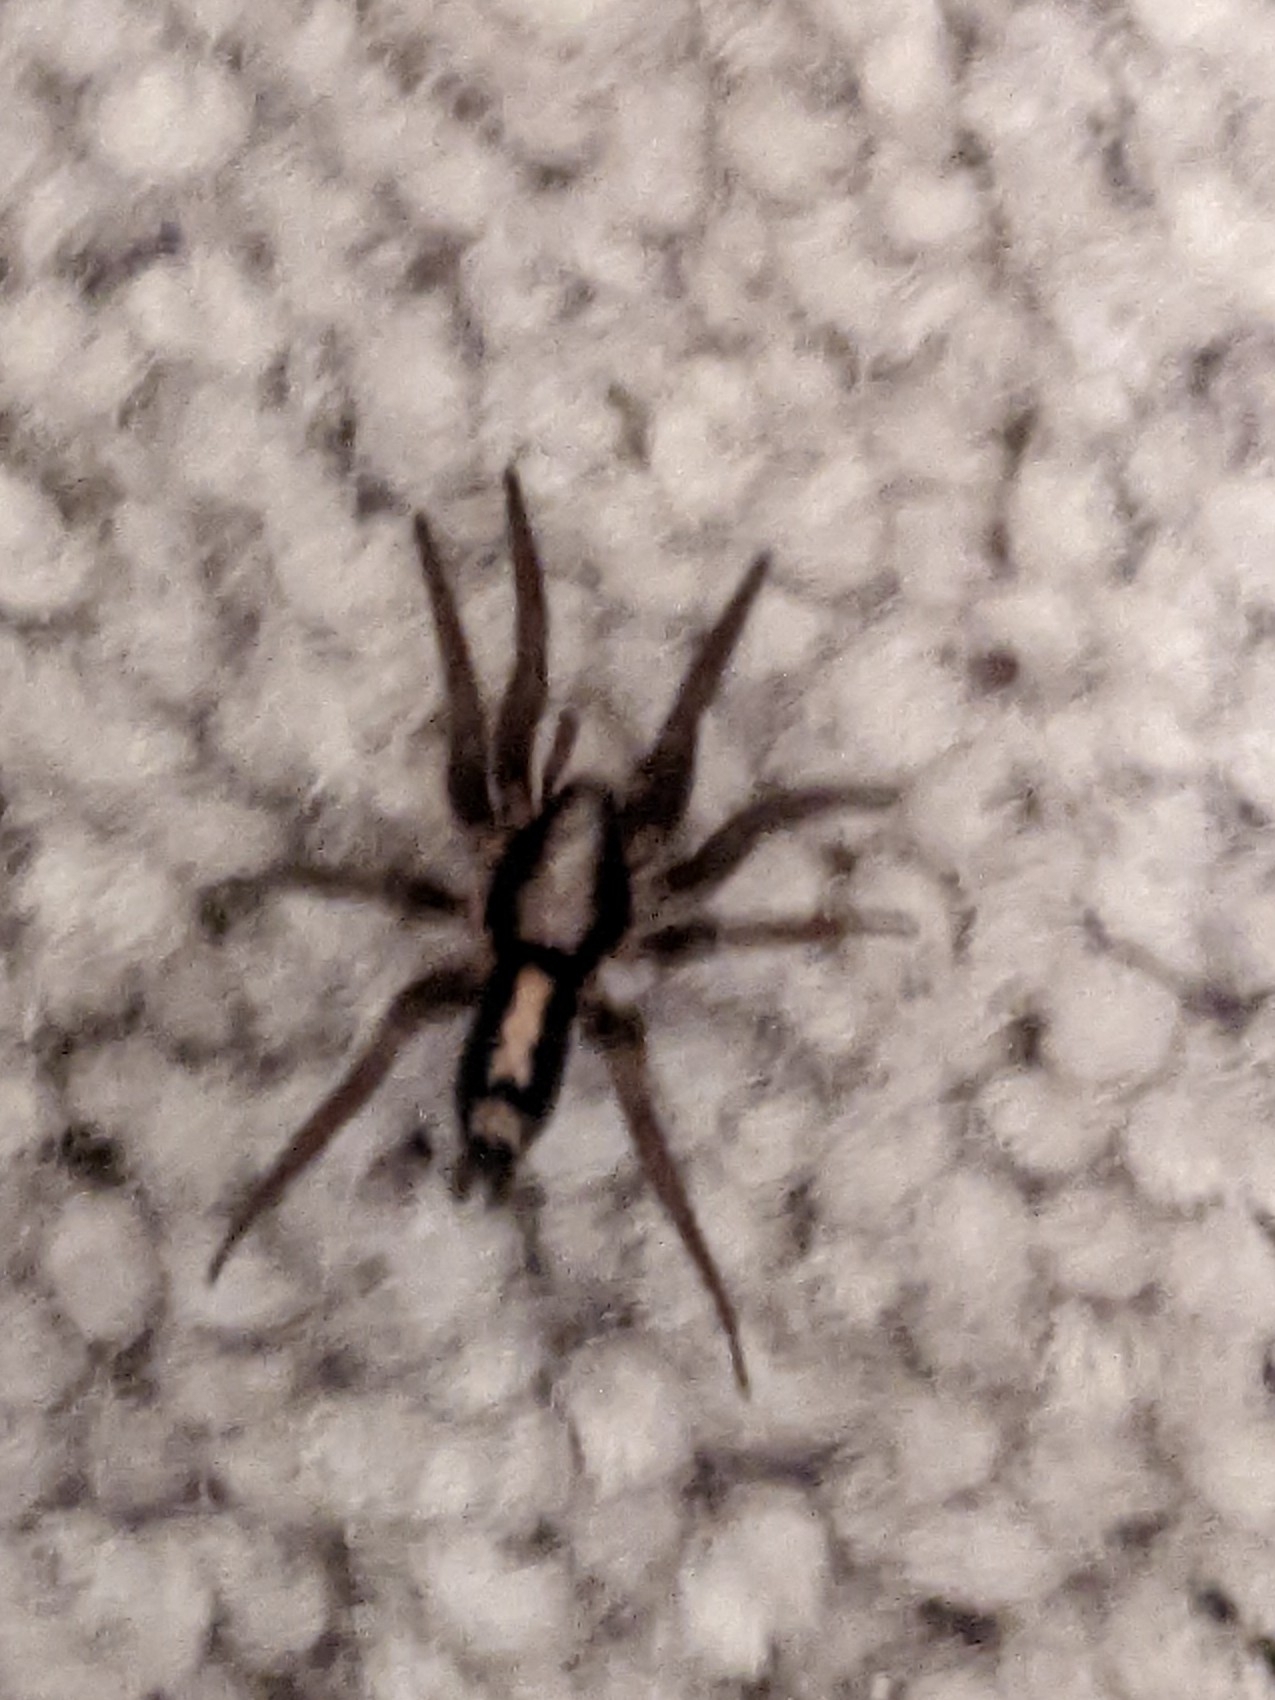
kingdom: Animalia
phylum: Arthropoda
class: Arachnida
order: Araneae
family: Gnaphosidae
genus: Herpyllus
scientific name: Herpyllus ecclesiasticus
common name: Eastern parson spider
